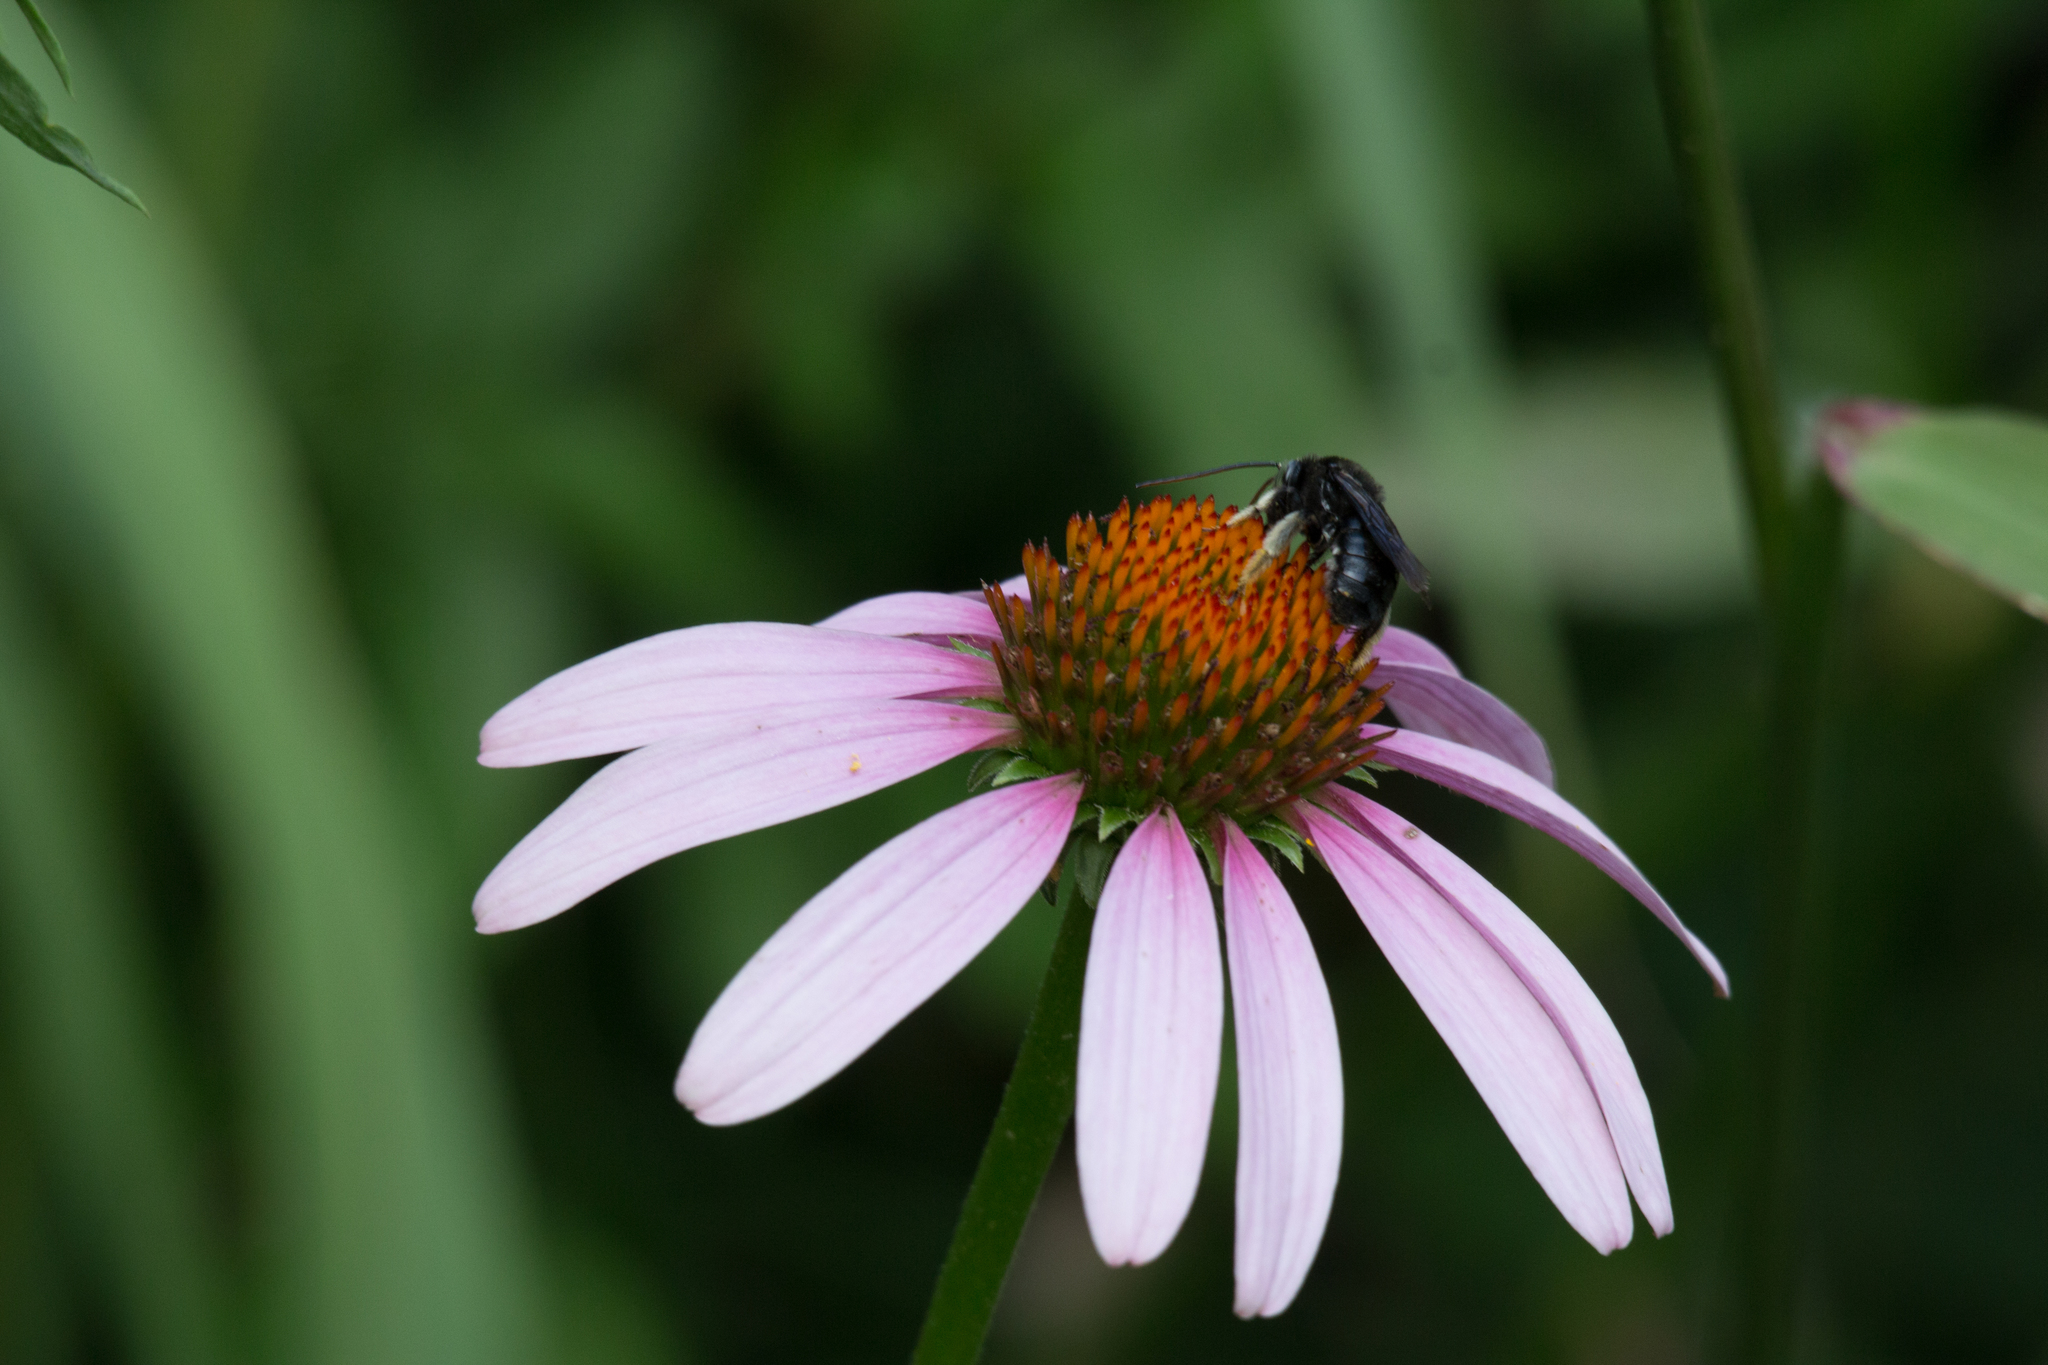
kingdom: Animalia
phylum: Arthropoda
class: Insecta
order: Hymenoptera
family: Apidae
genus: Melissodes
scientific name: Melissodes bimaculatus
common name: Two-spotted long-horned bee
